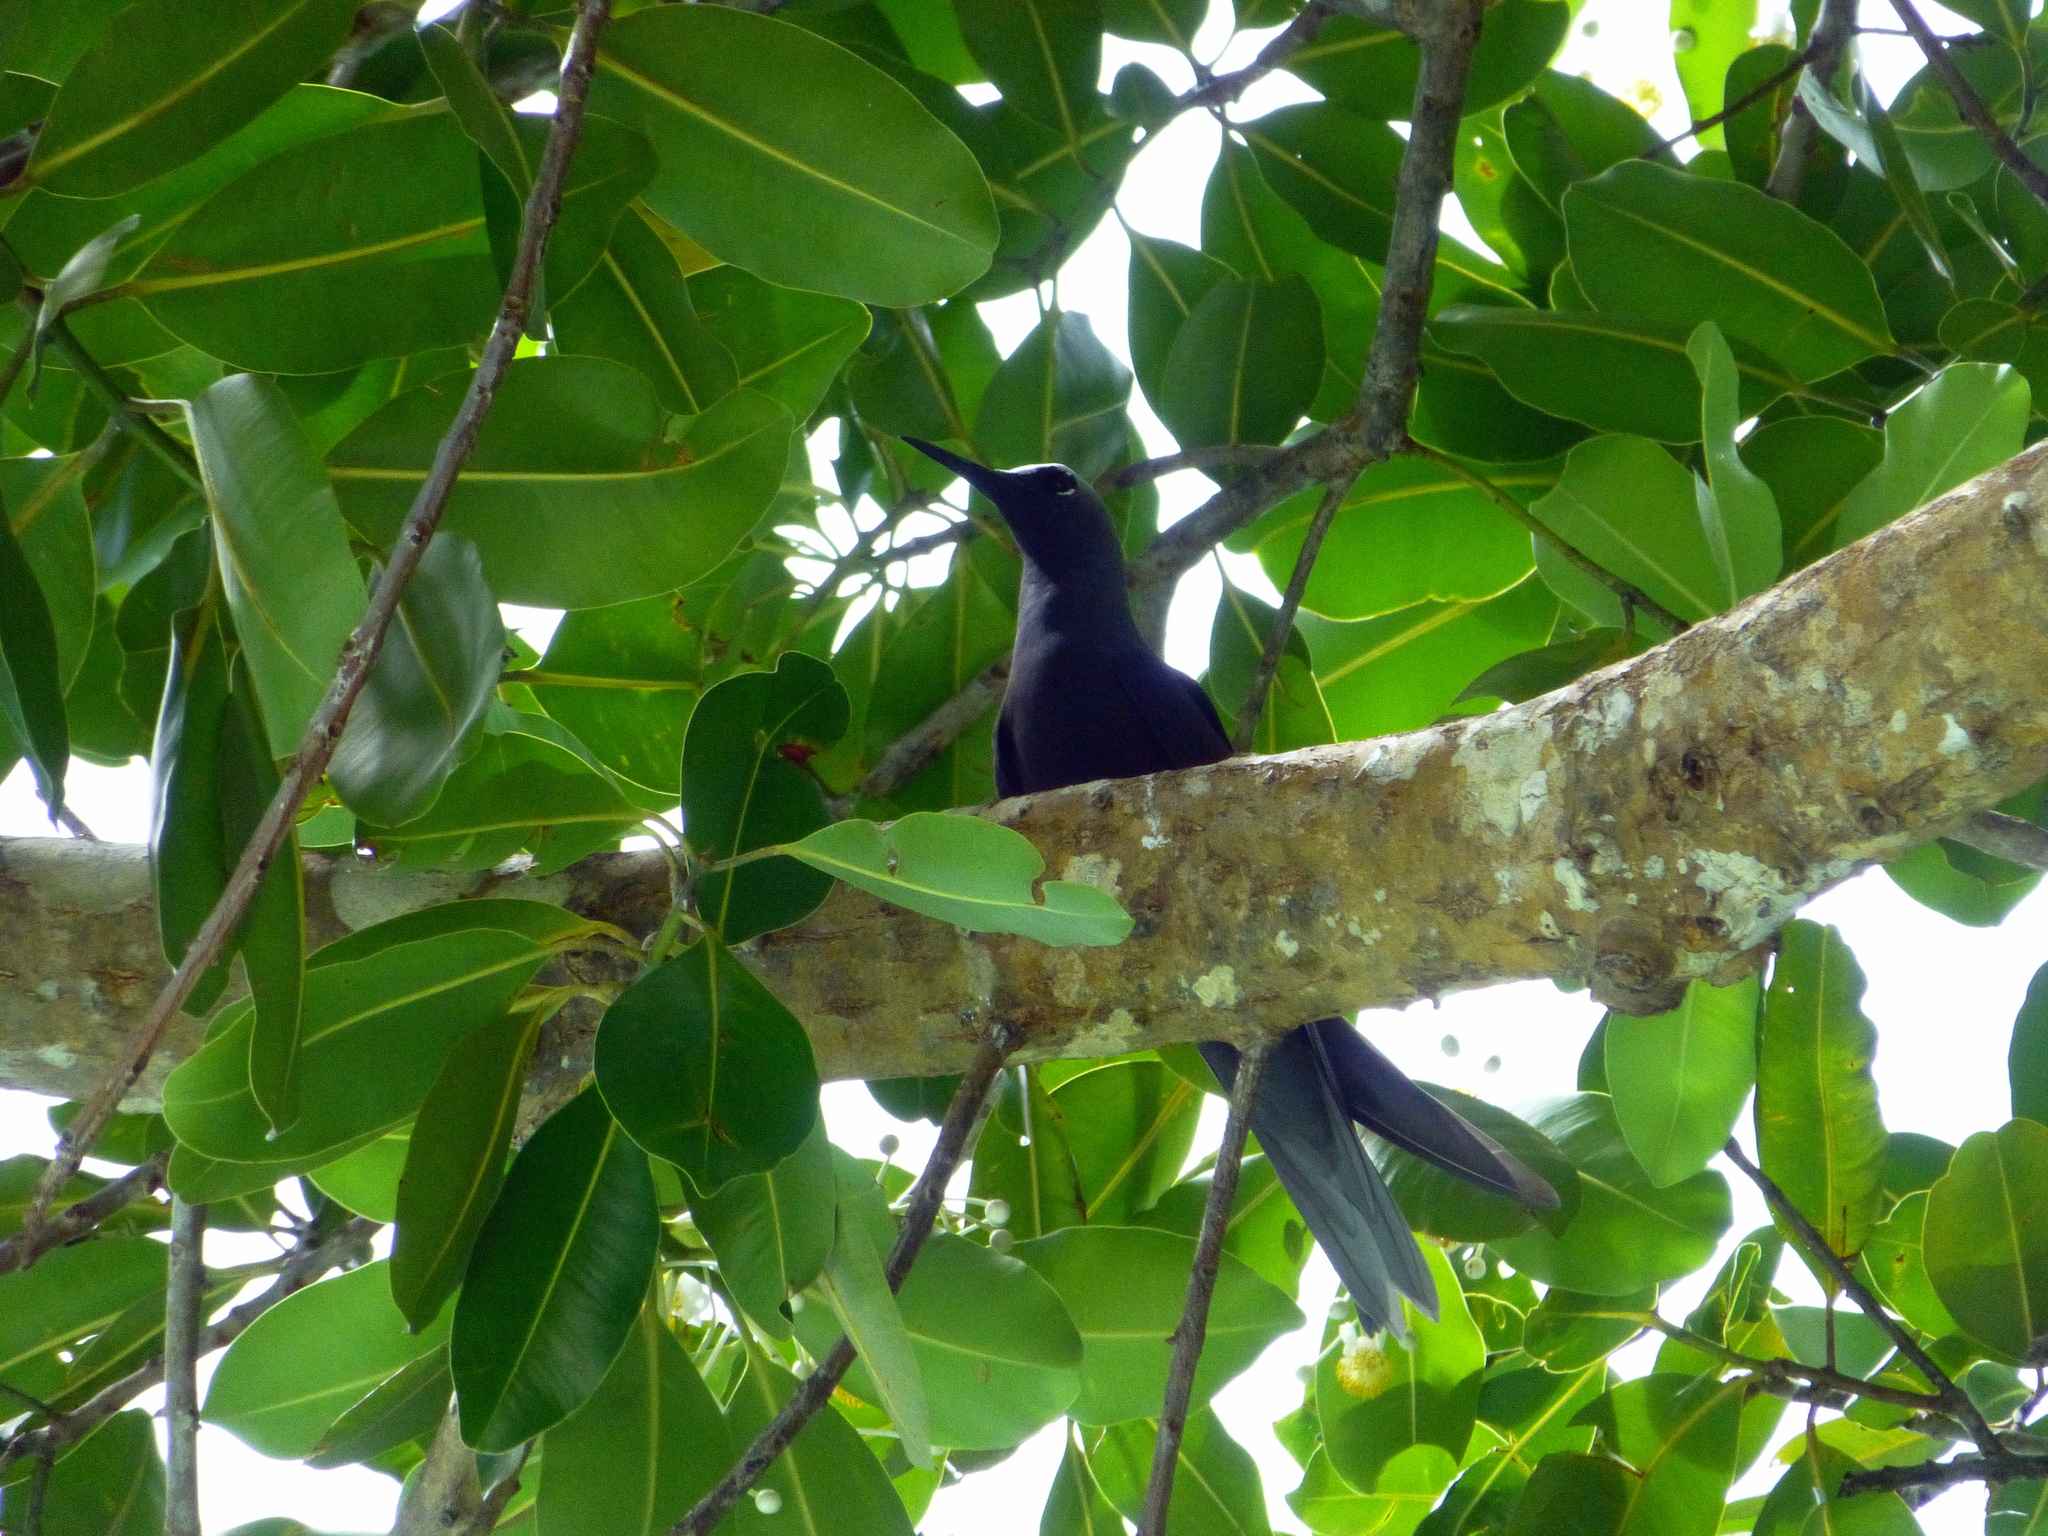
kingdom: Animalia
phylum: Chordata
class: Aves
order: Charadriiformes
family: Laridae
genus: Anous
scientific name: Anous minutus
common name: Black noddy
